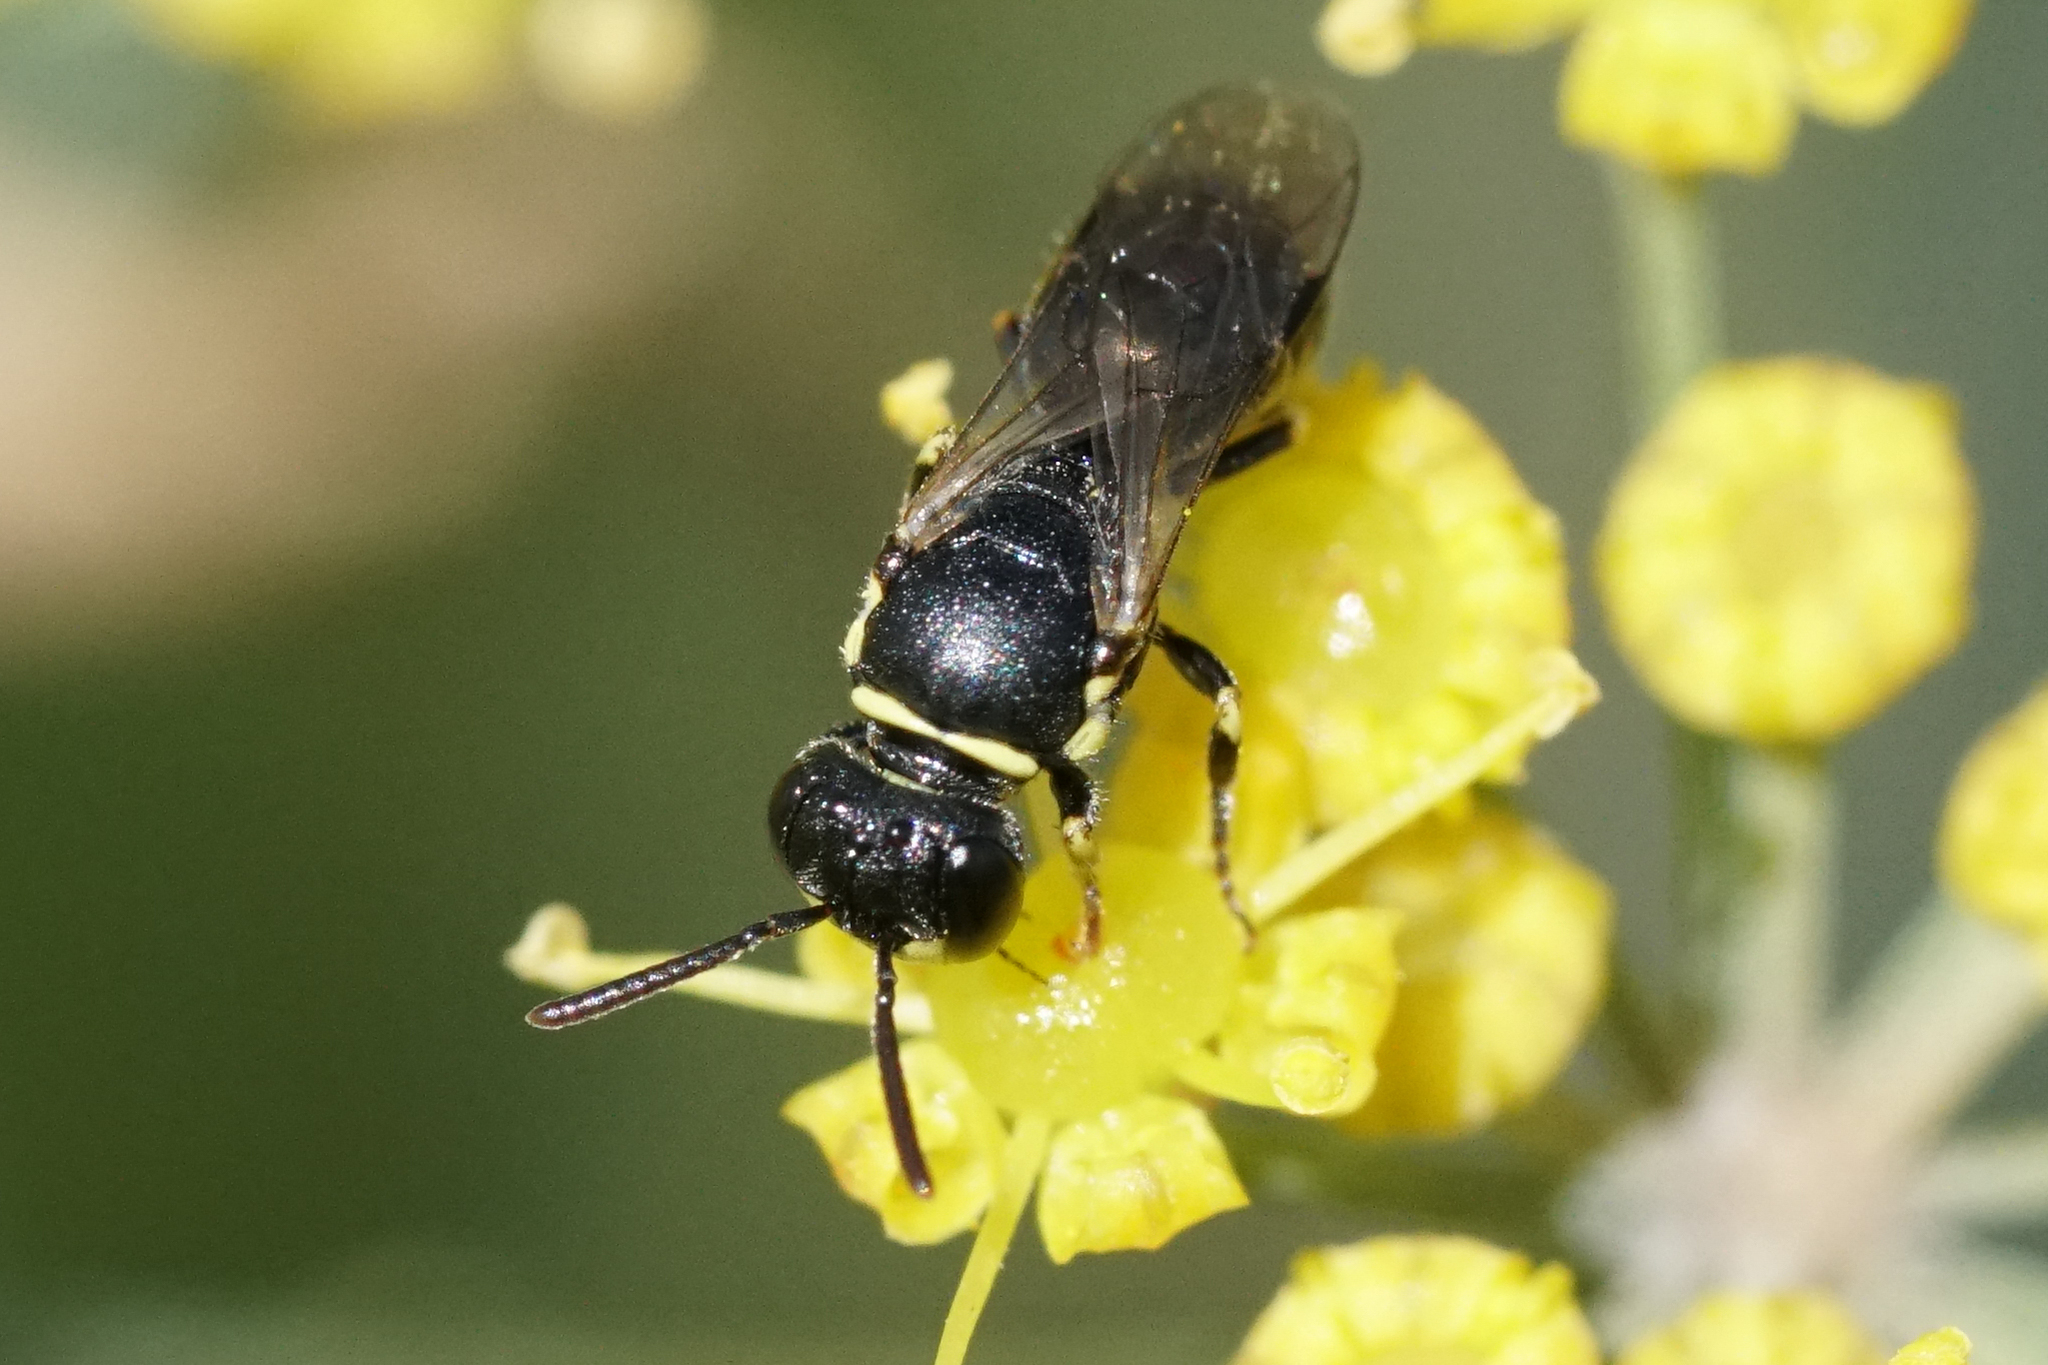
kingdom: Animalia
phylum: Arthropoda
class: Insecta
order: Hymenoptera
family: Colletidae
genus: Hylaeus
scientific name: Hylaeus
